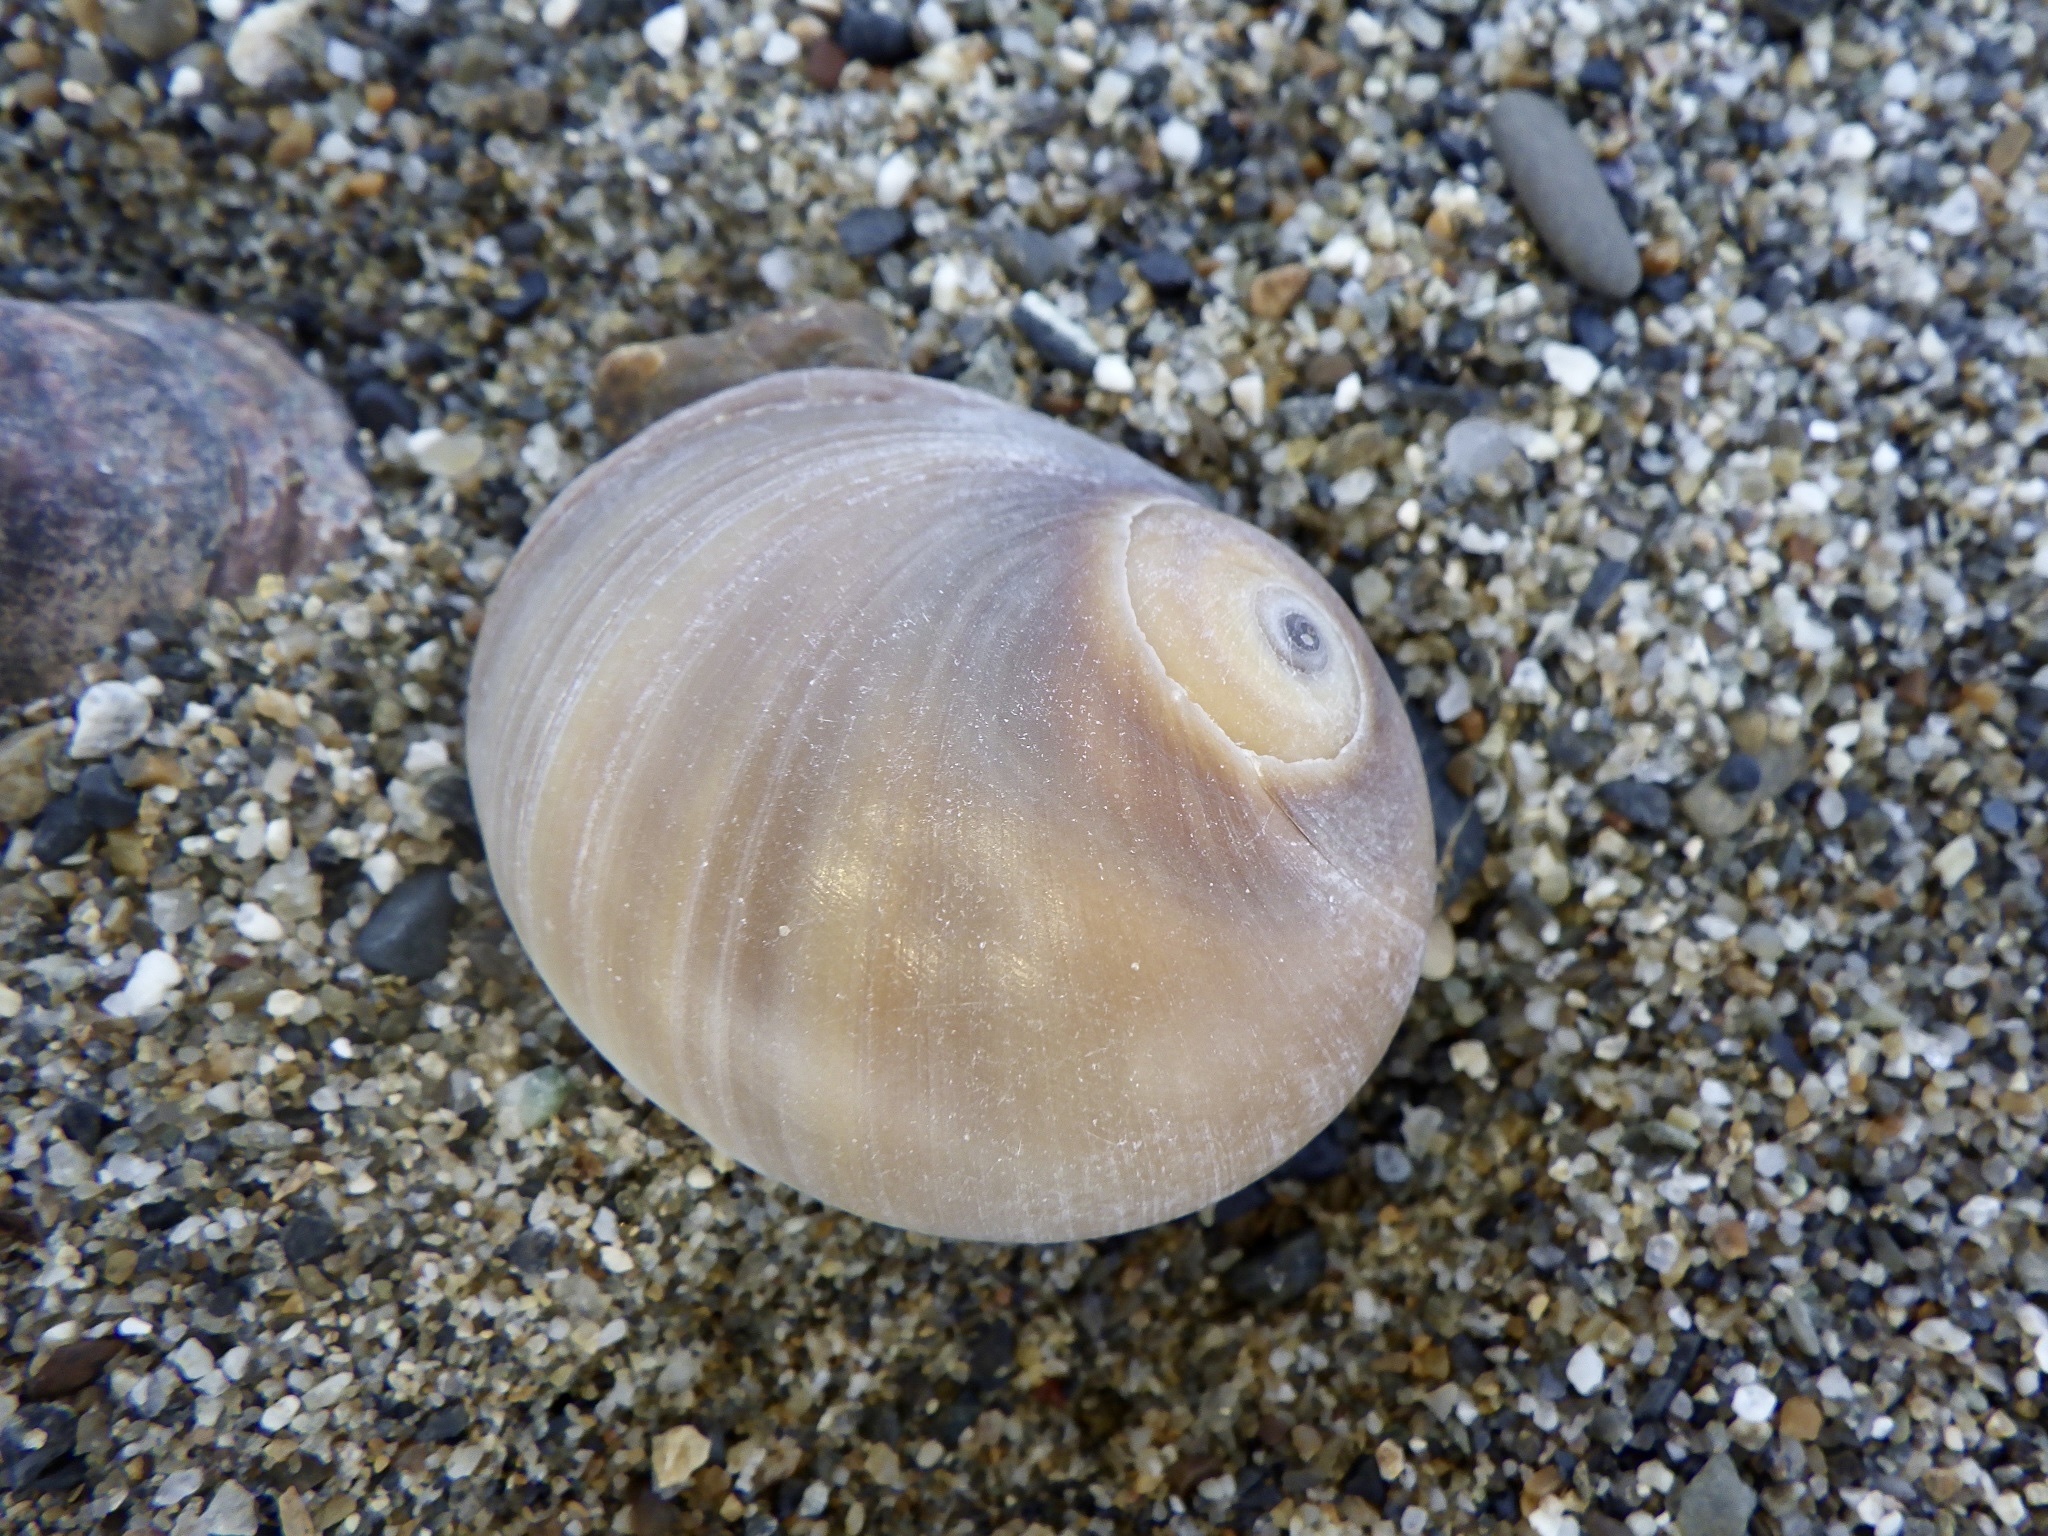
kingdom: Animalia
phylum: Mollusca
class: Gastropoda
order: Littorinimorpha
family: Naticidae
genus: Neverita
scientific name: Neverita didyma
